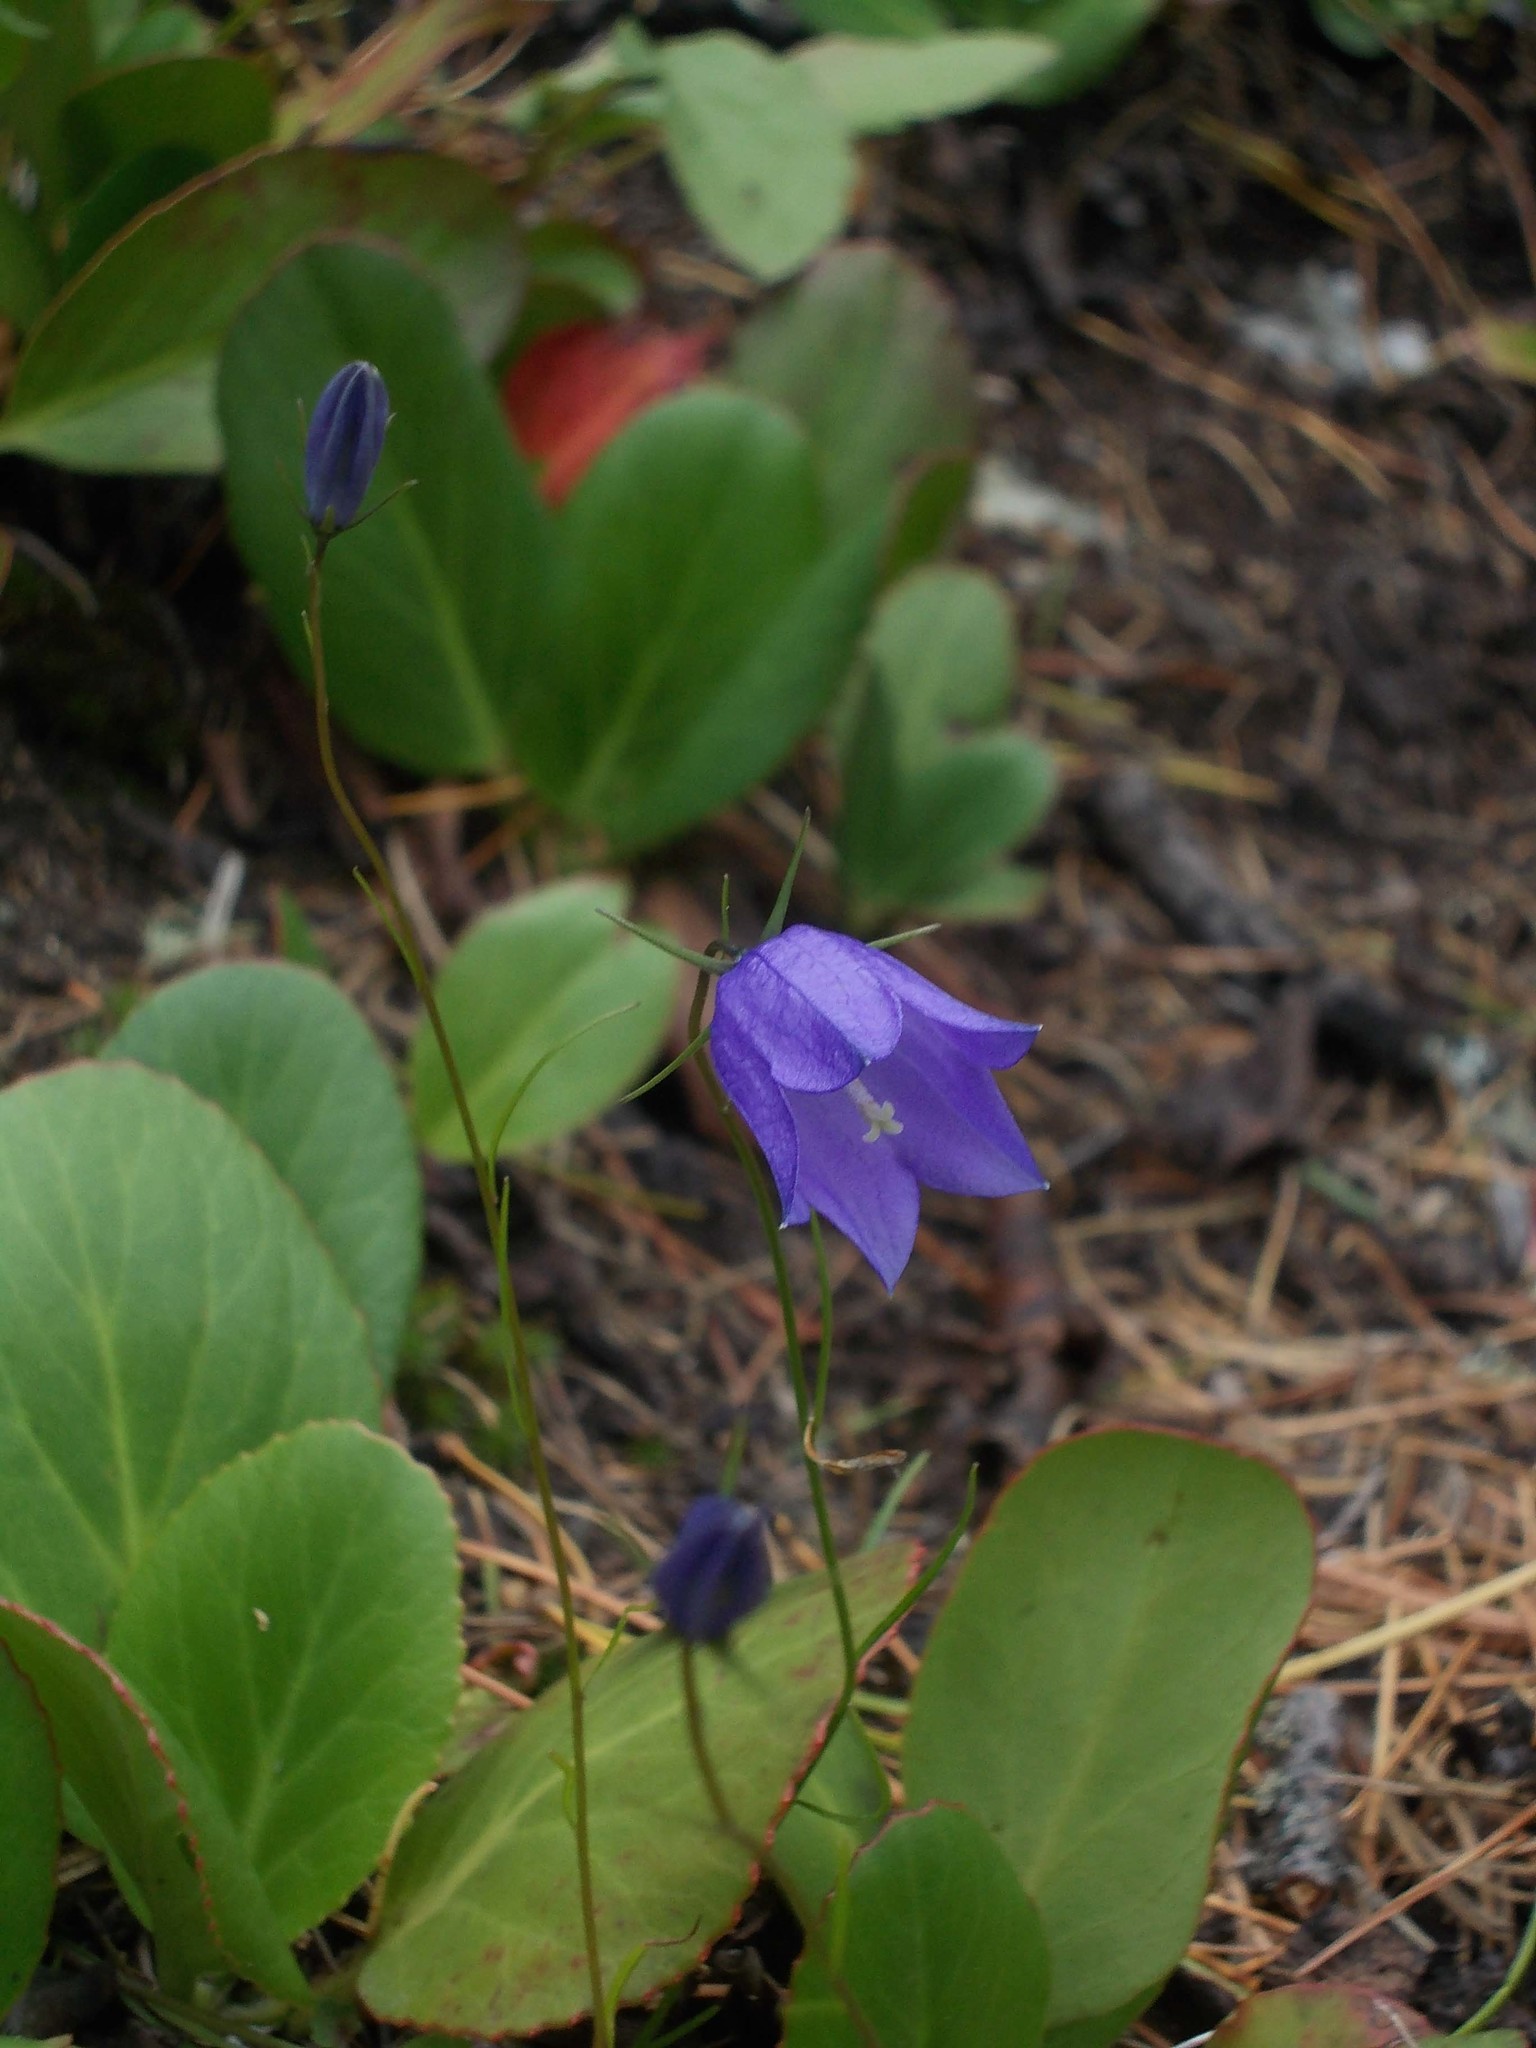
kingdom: Plantae
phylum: Tracheophyta
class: Magnoliopsida
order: Asterales
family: Campanulaceae
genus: Campanula
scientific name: Campanula rotundifolia
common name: Harebell
